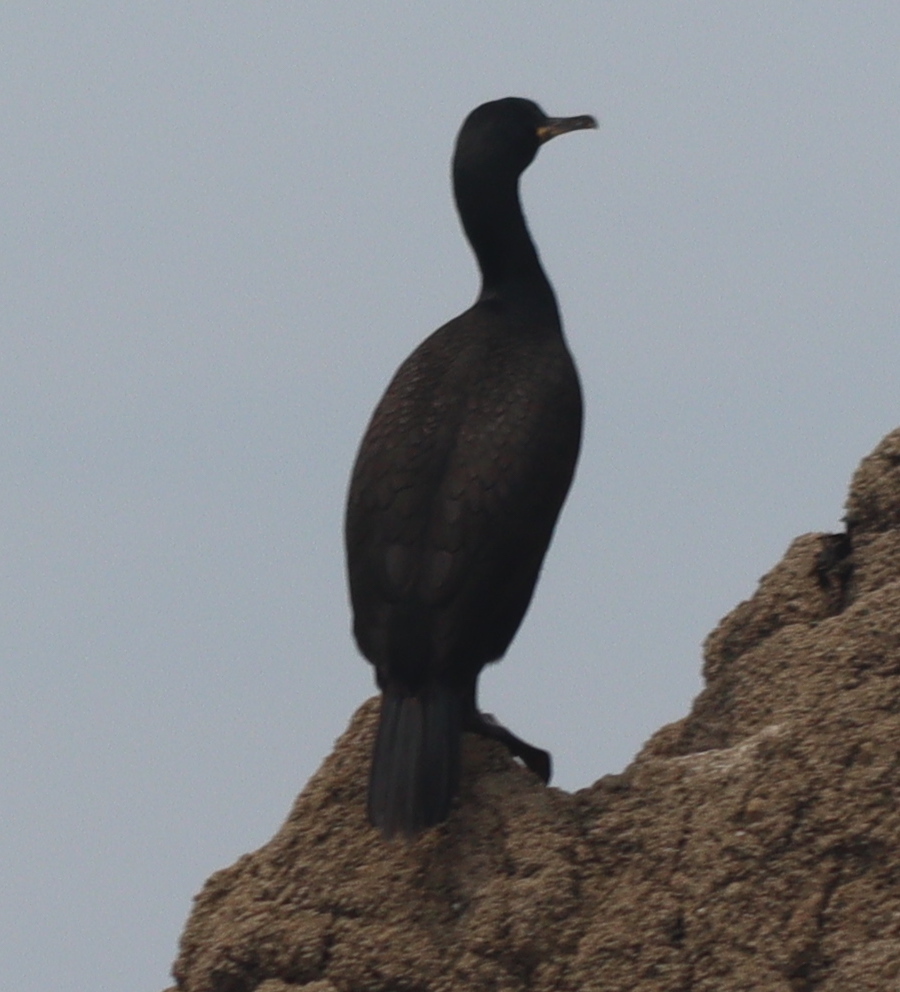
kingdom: Animalia
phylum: Chordata
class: Aves
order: Suliformes
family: Phalacrocoracidae
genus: Phalacrocorax
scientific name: Phalacrocorax aristotelis
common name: European shag
